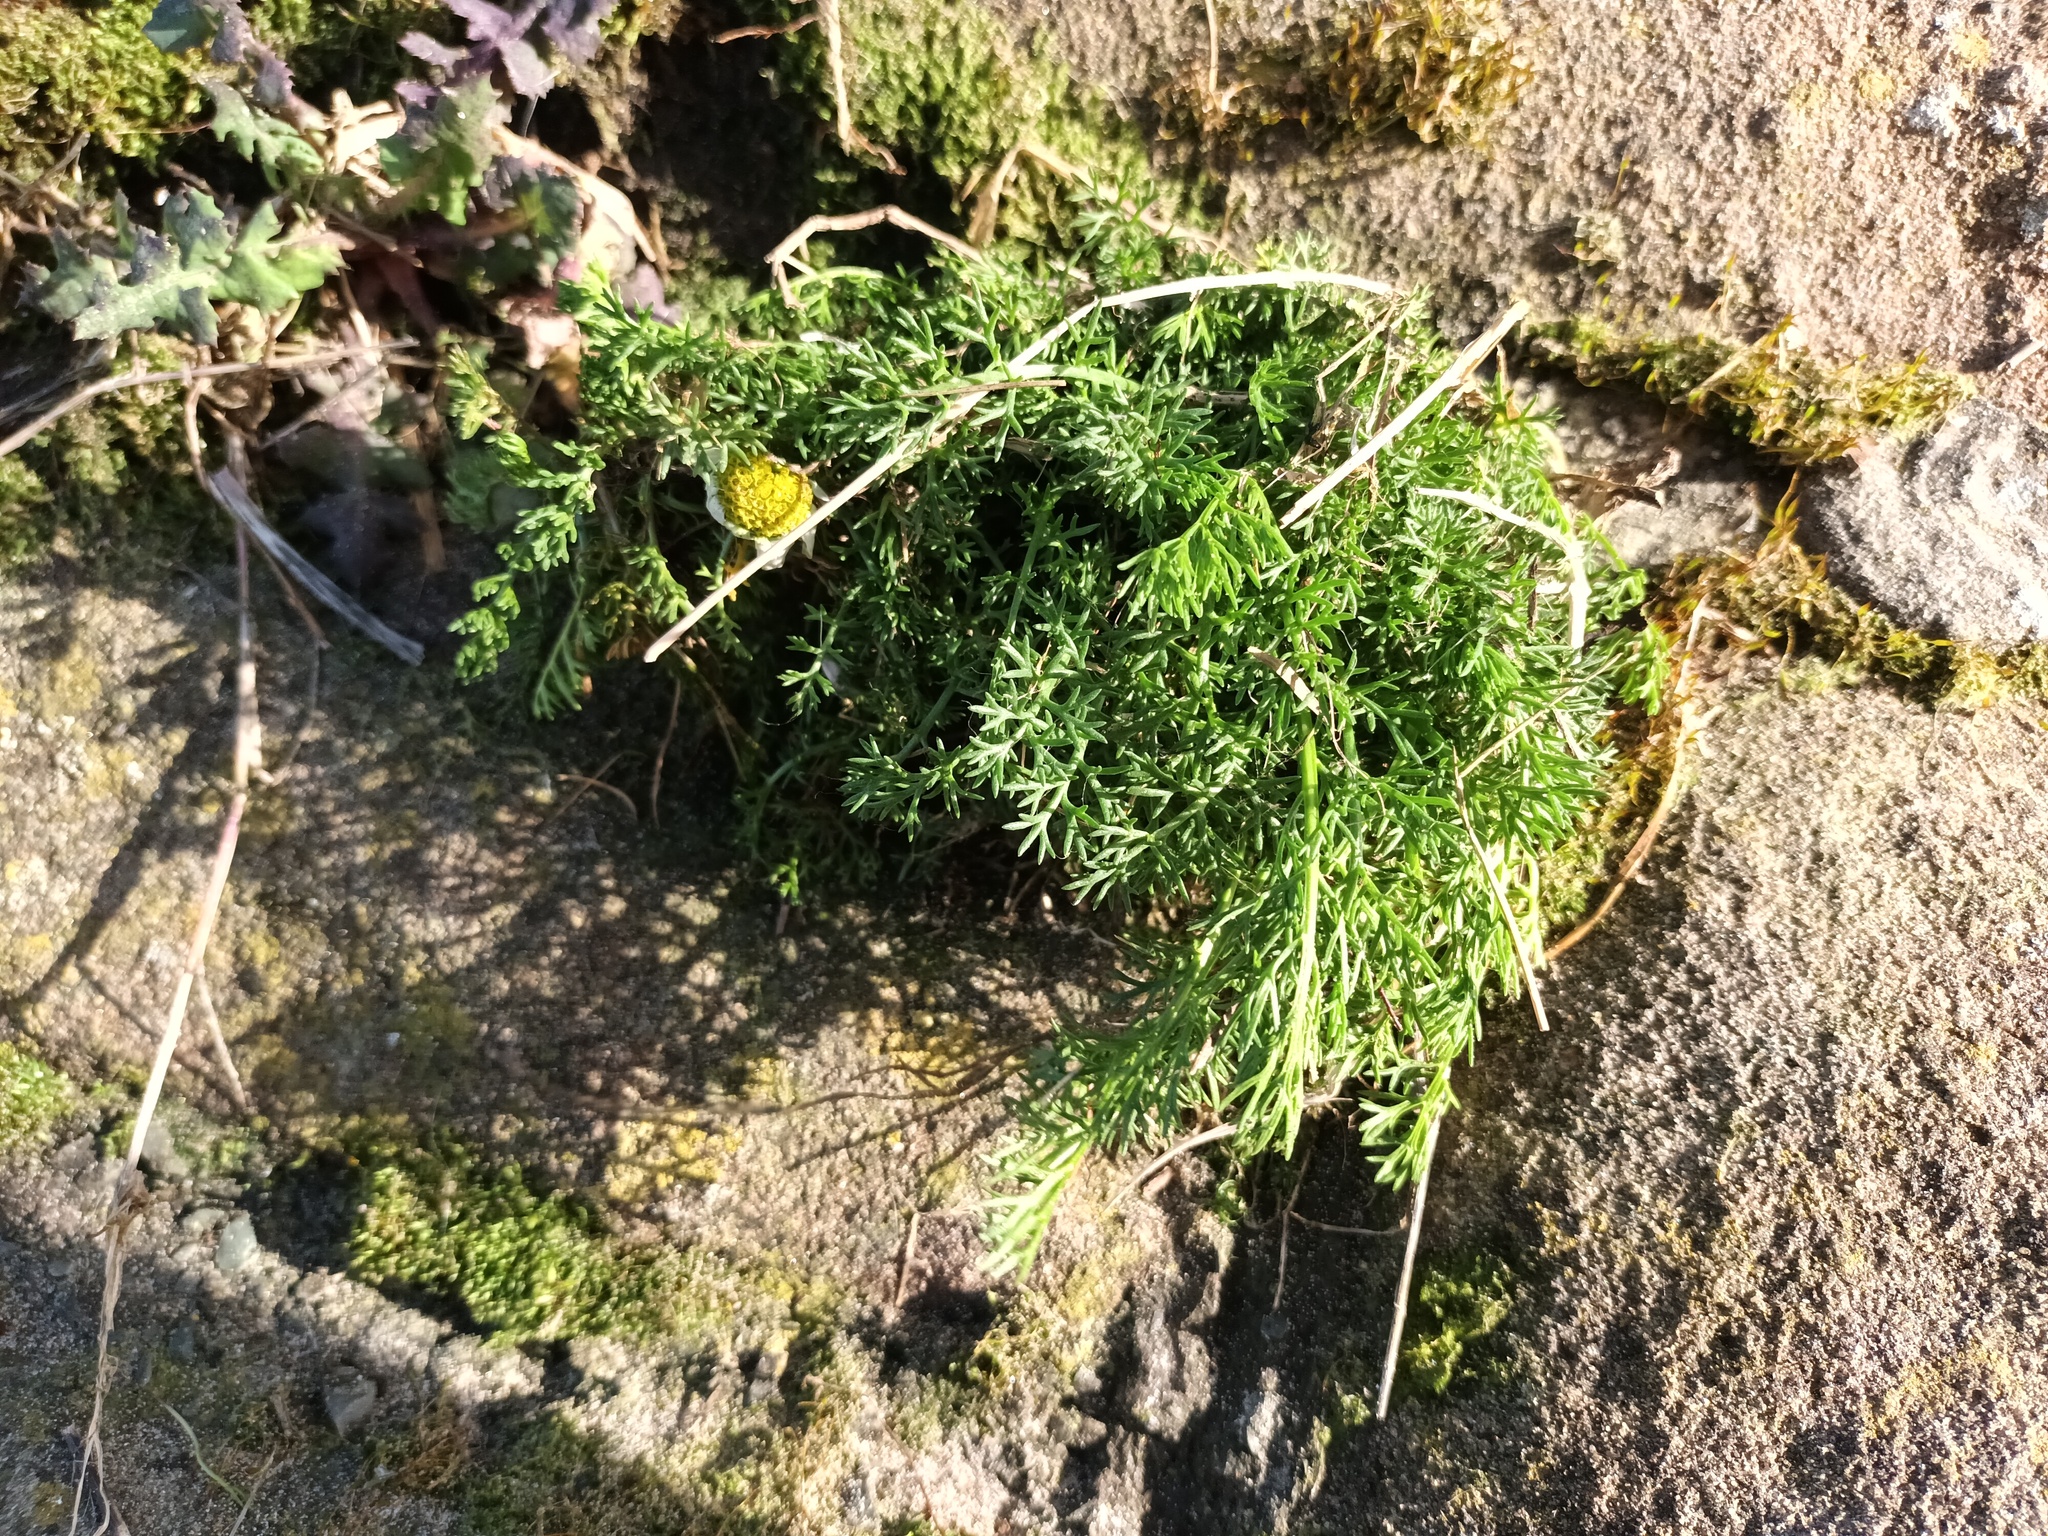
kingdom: Plantae
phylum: Tracheophyta
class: Magnoliopsida
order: Asterales
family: Asteraceae
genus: Tripleurospermum
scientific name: Tripleurospermum maritimum
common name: Sea mayweed
